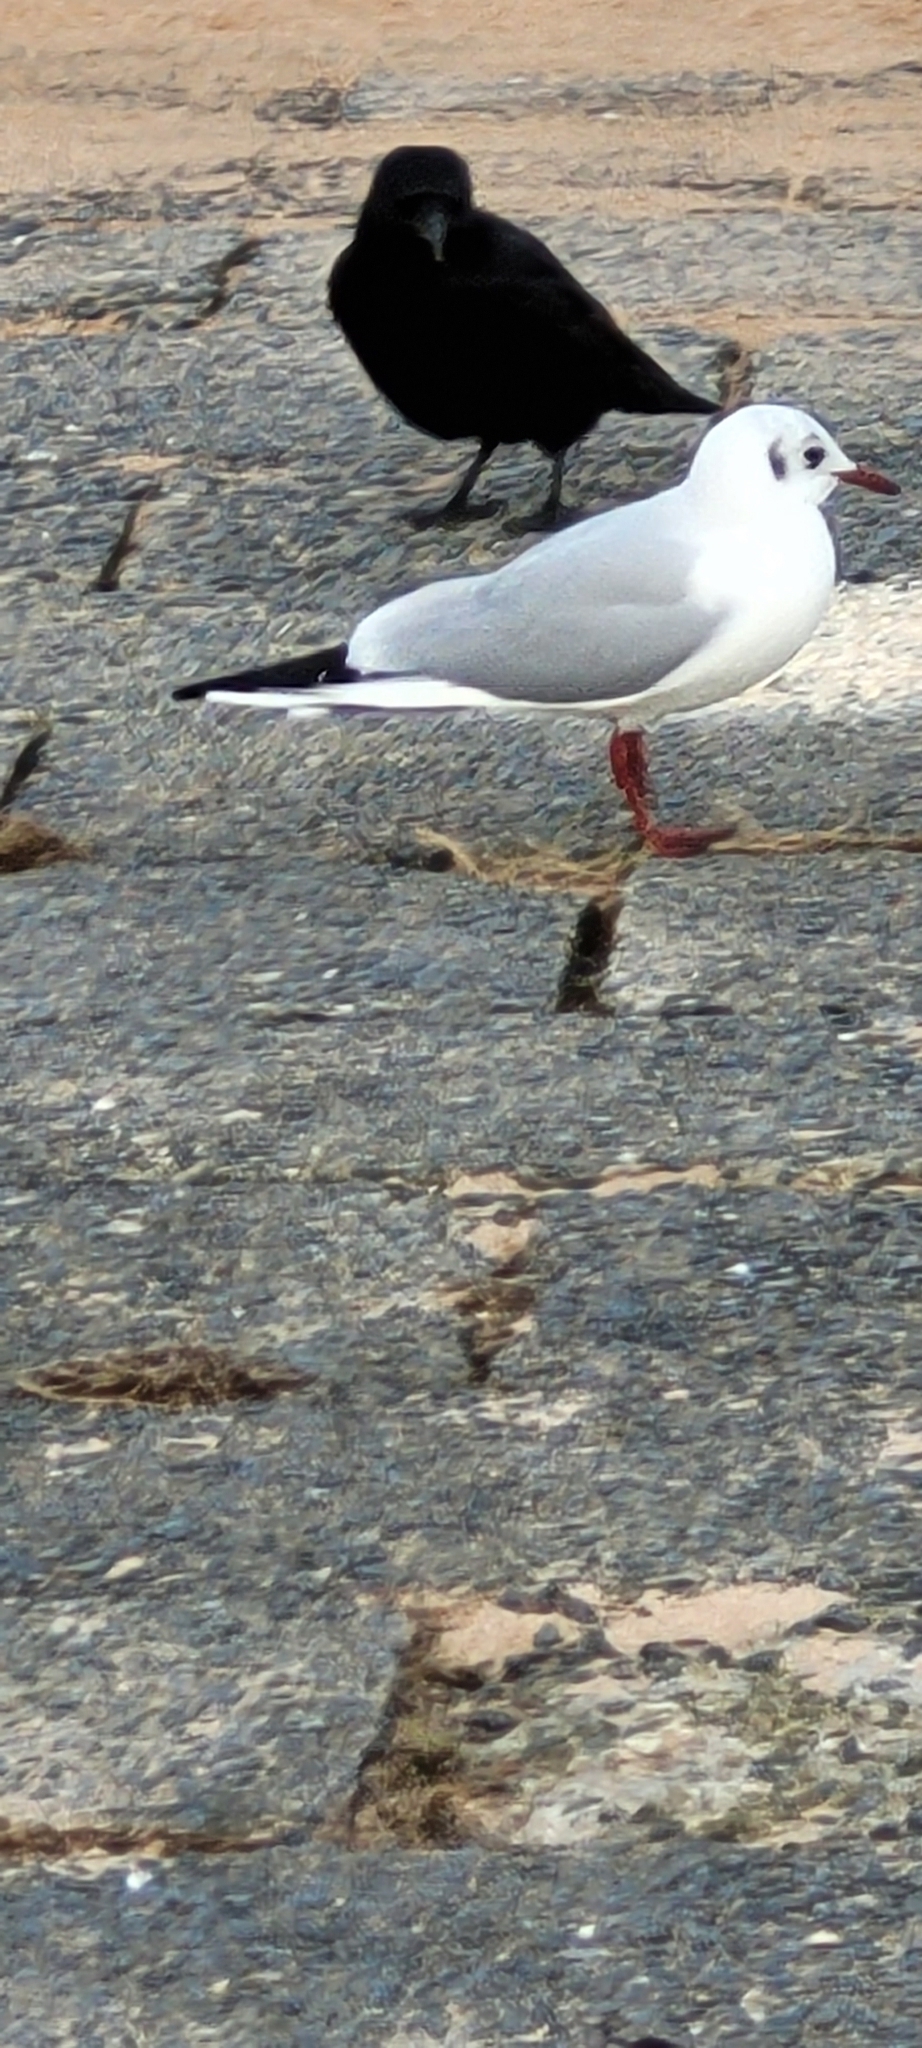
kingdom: Animalia
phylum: Chordata
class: Aves
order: Charadriiformes
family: Laridae
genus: Chroicocephalus
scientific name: Chroicocephalus ridibundus
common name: Black-headed gull
